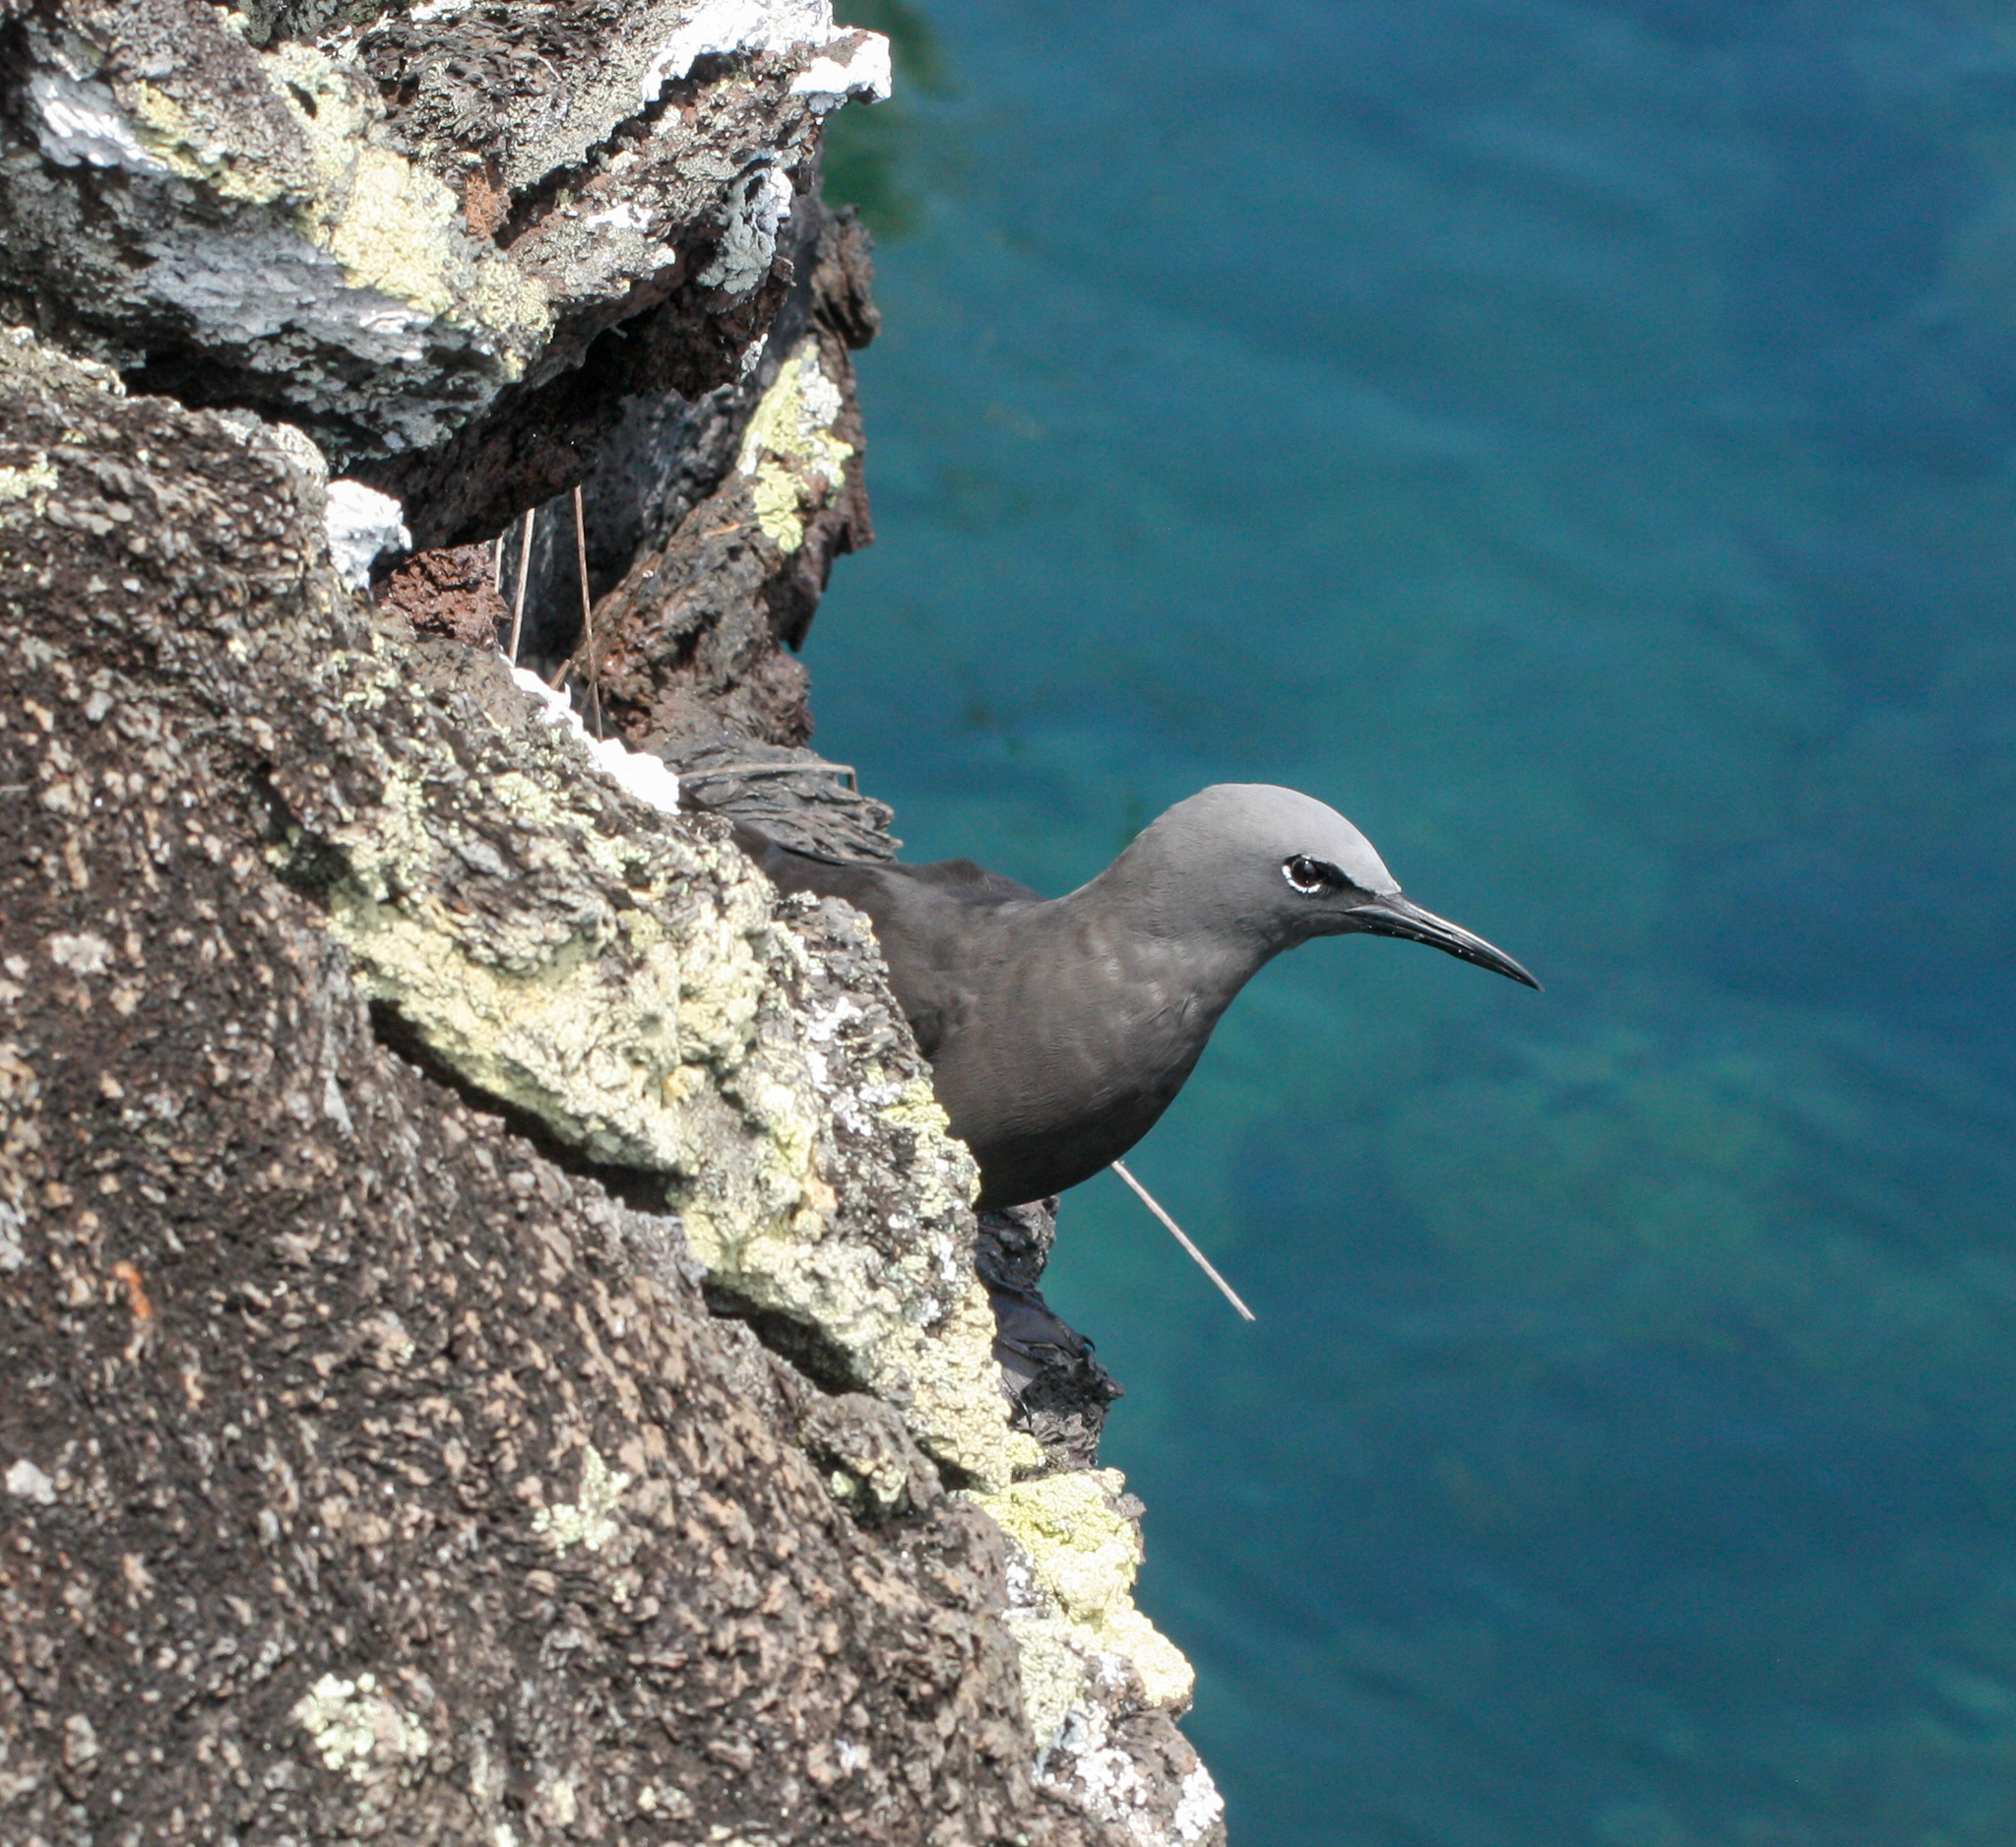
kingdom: Animalia
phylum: Chordata
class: Aves
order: Charadriiformes
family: Laridae
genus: Anous
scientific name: Anous stolidus
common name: Brown noddy
